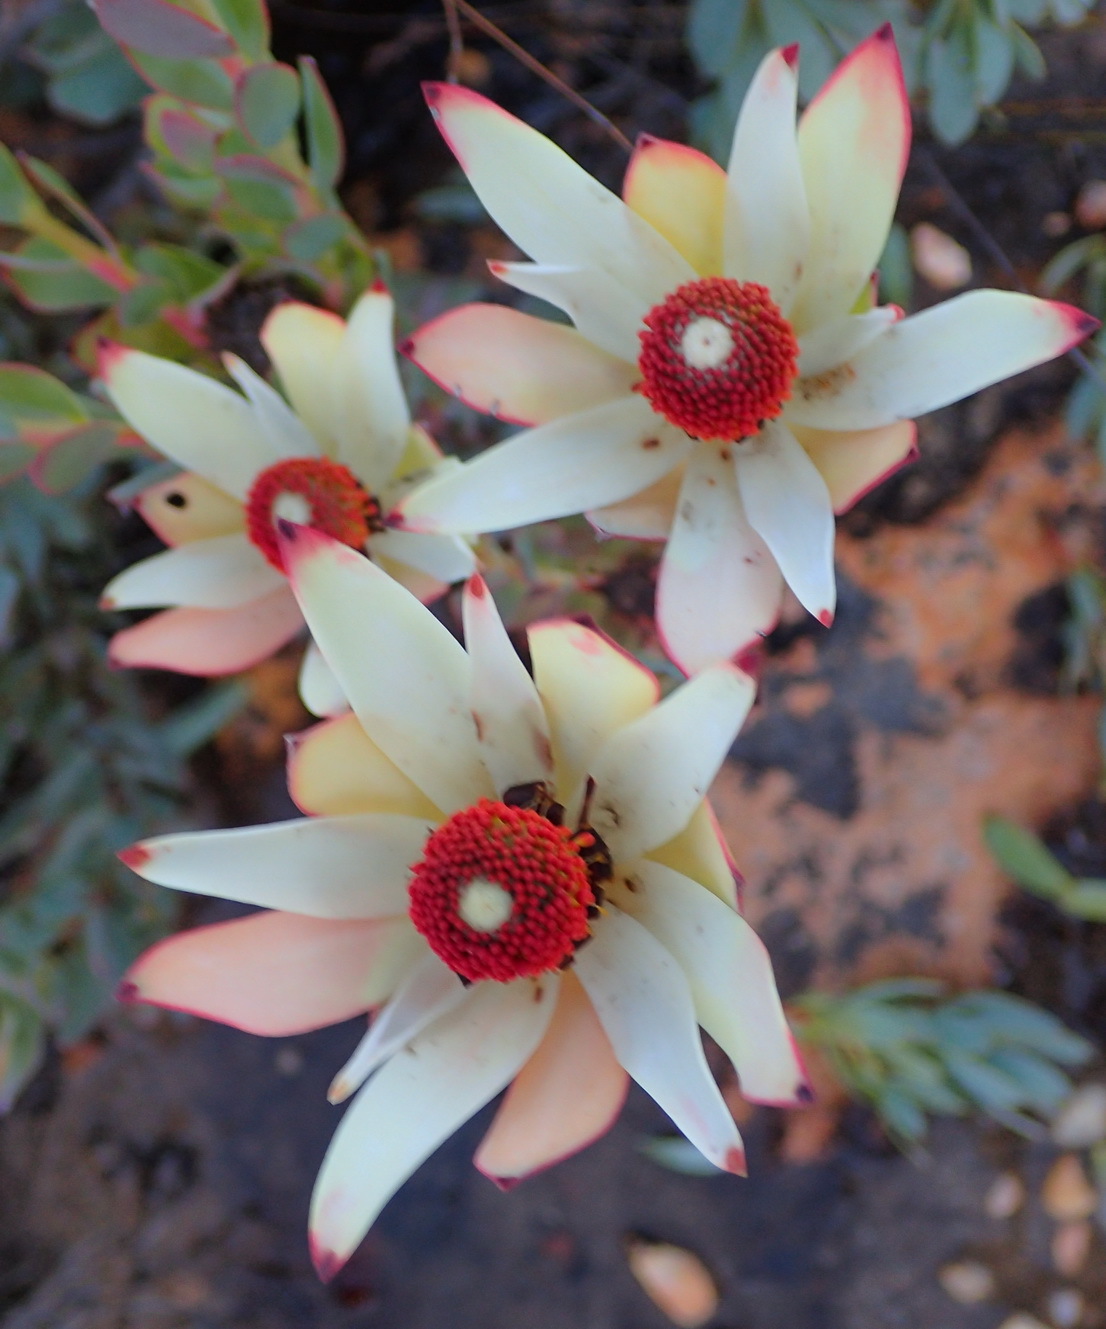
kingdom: Plantae
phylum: Tracheophyta
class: Magnoliopsida
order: Proteales
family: Proteaceae
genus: Leucadendron
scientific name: Leucadendron procerum
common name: Ivory conebush
